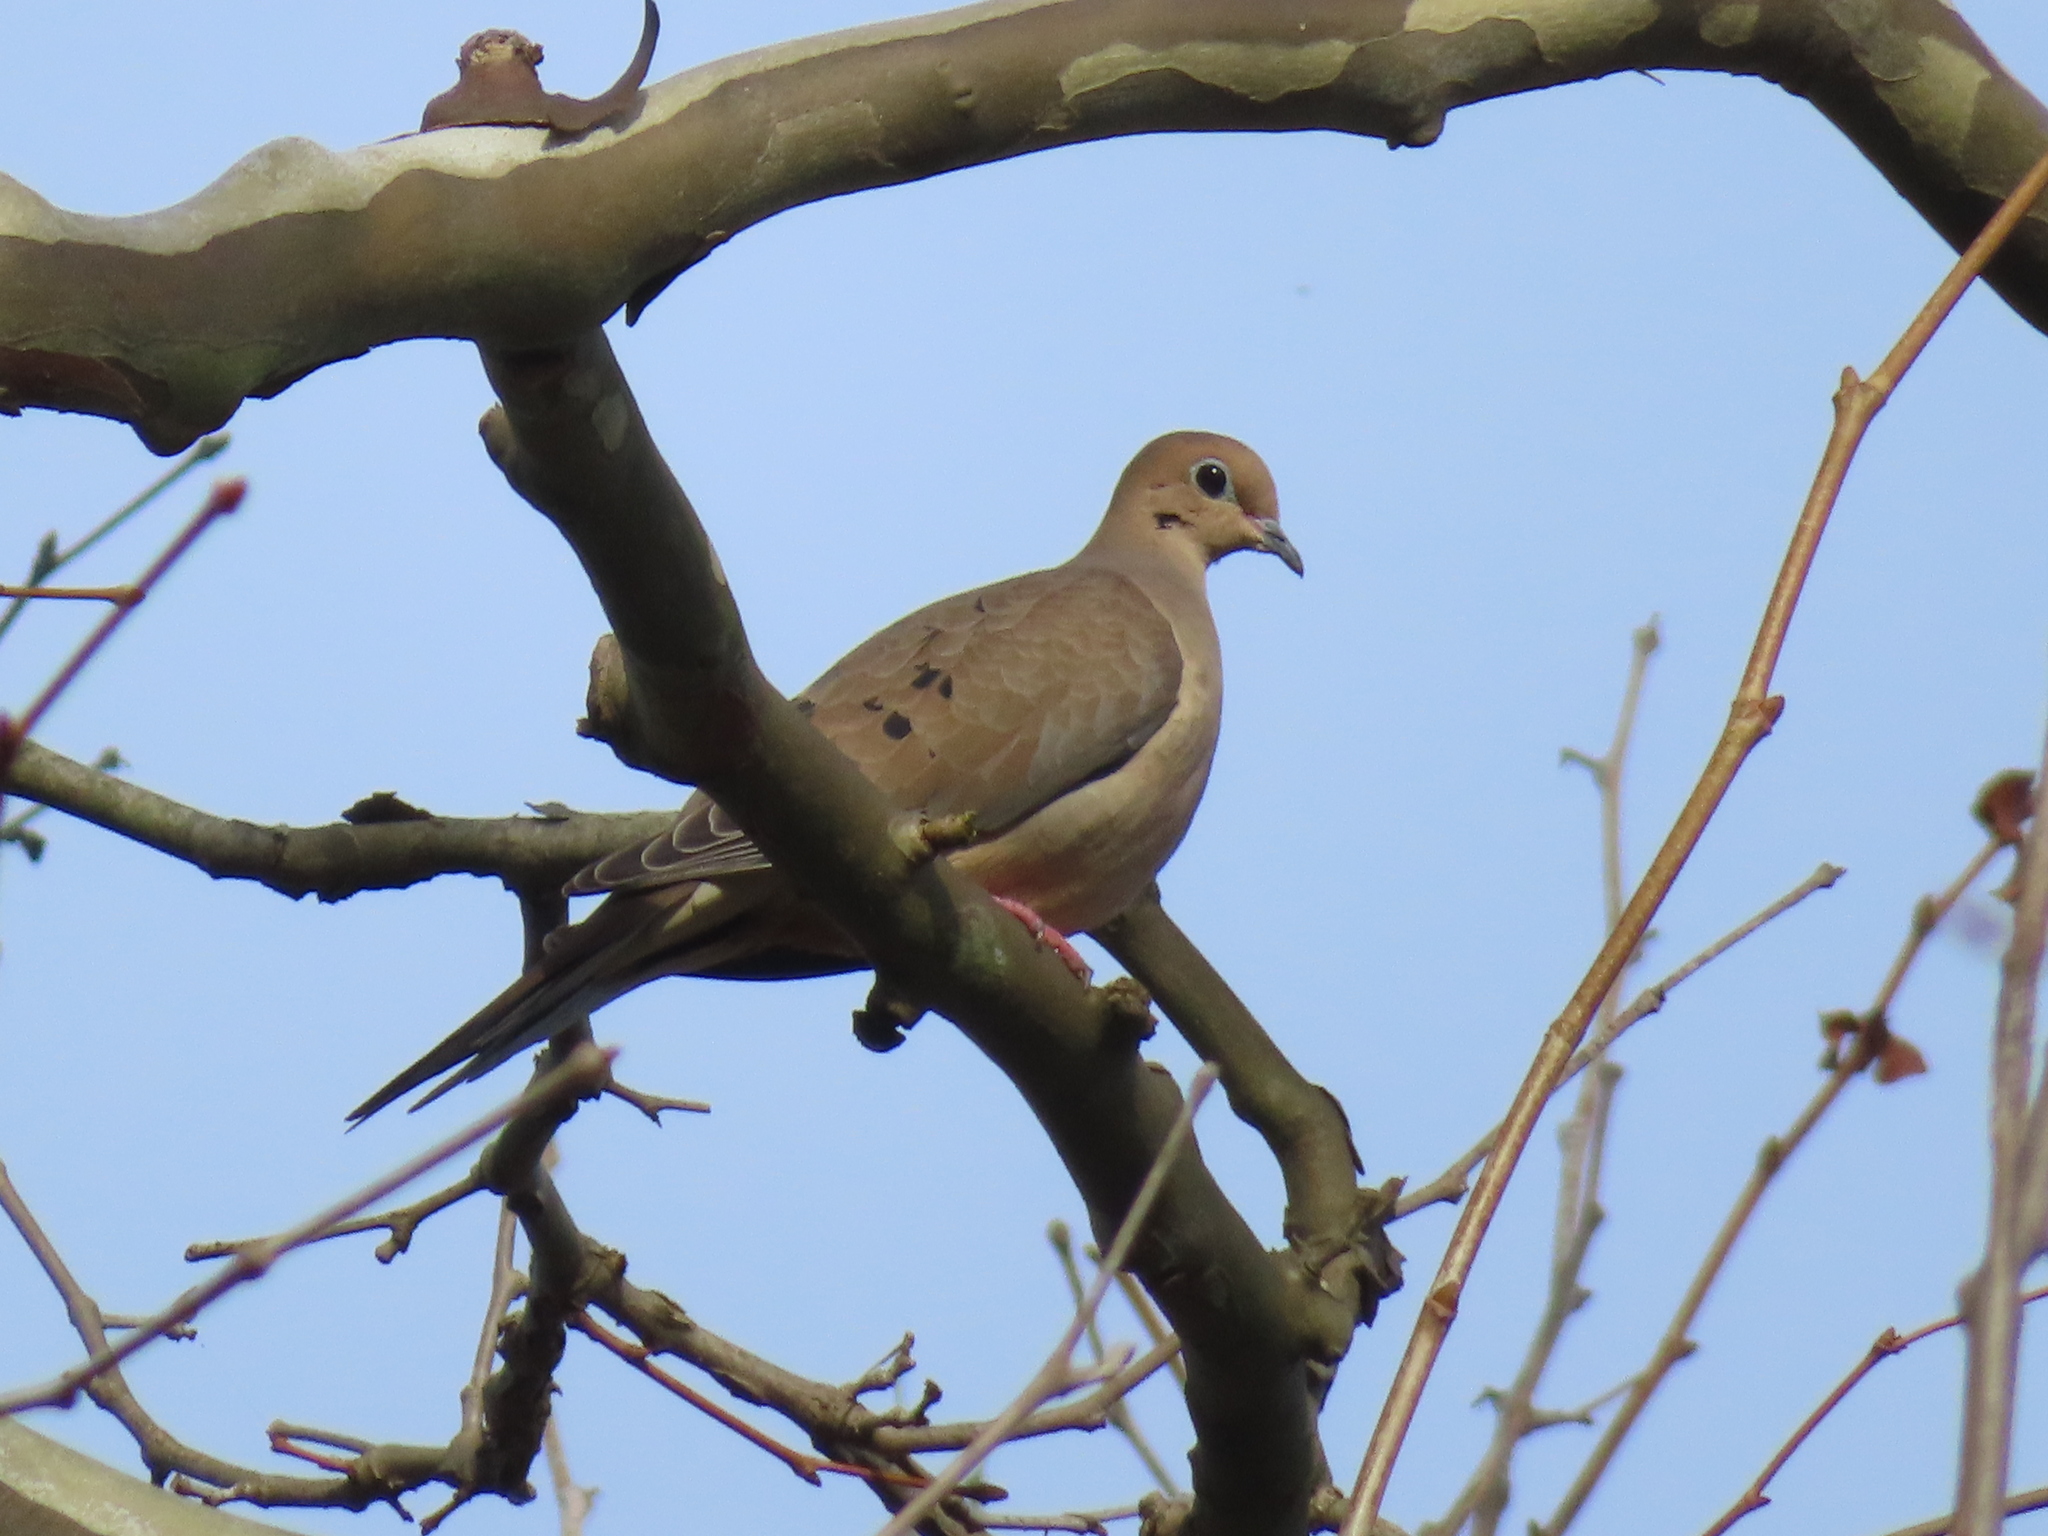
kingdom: Animalia
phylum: Chordata
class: Aves
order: Columbiformes
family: Columbidae
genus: Zenaida
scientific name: Zenaida macroura
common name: Mourning dove
